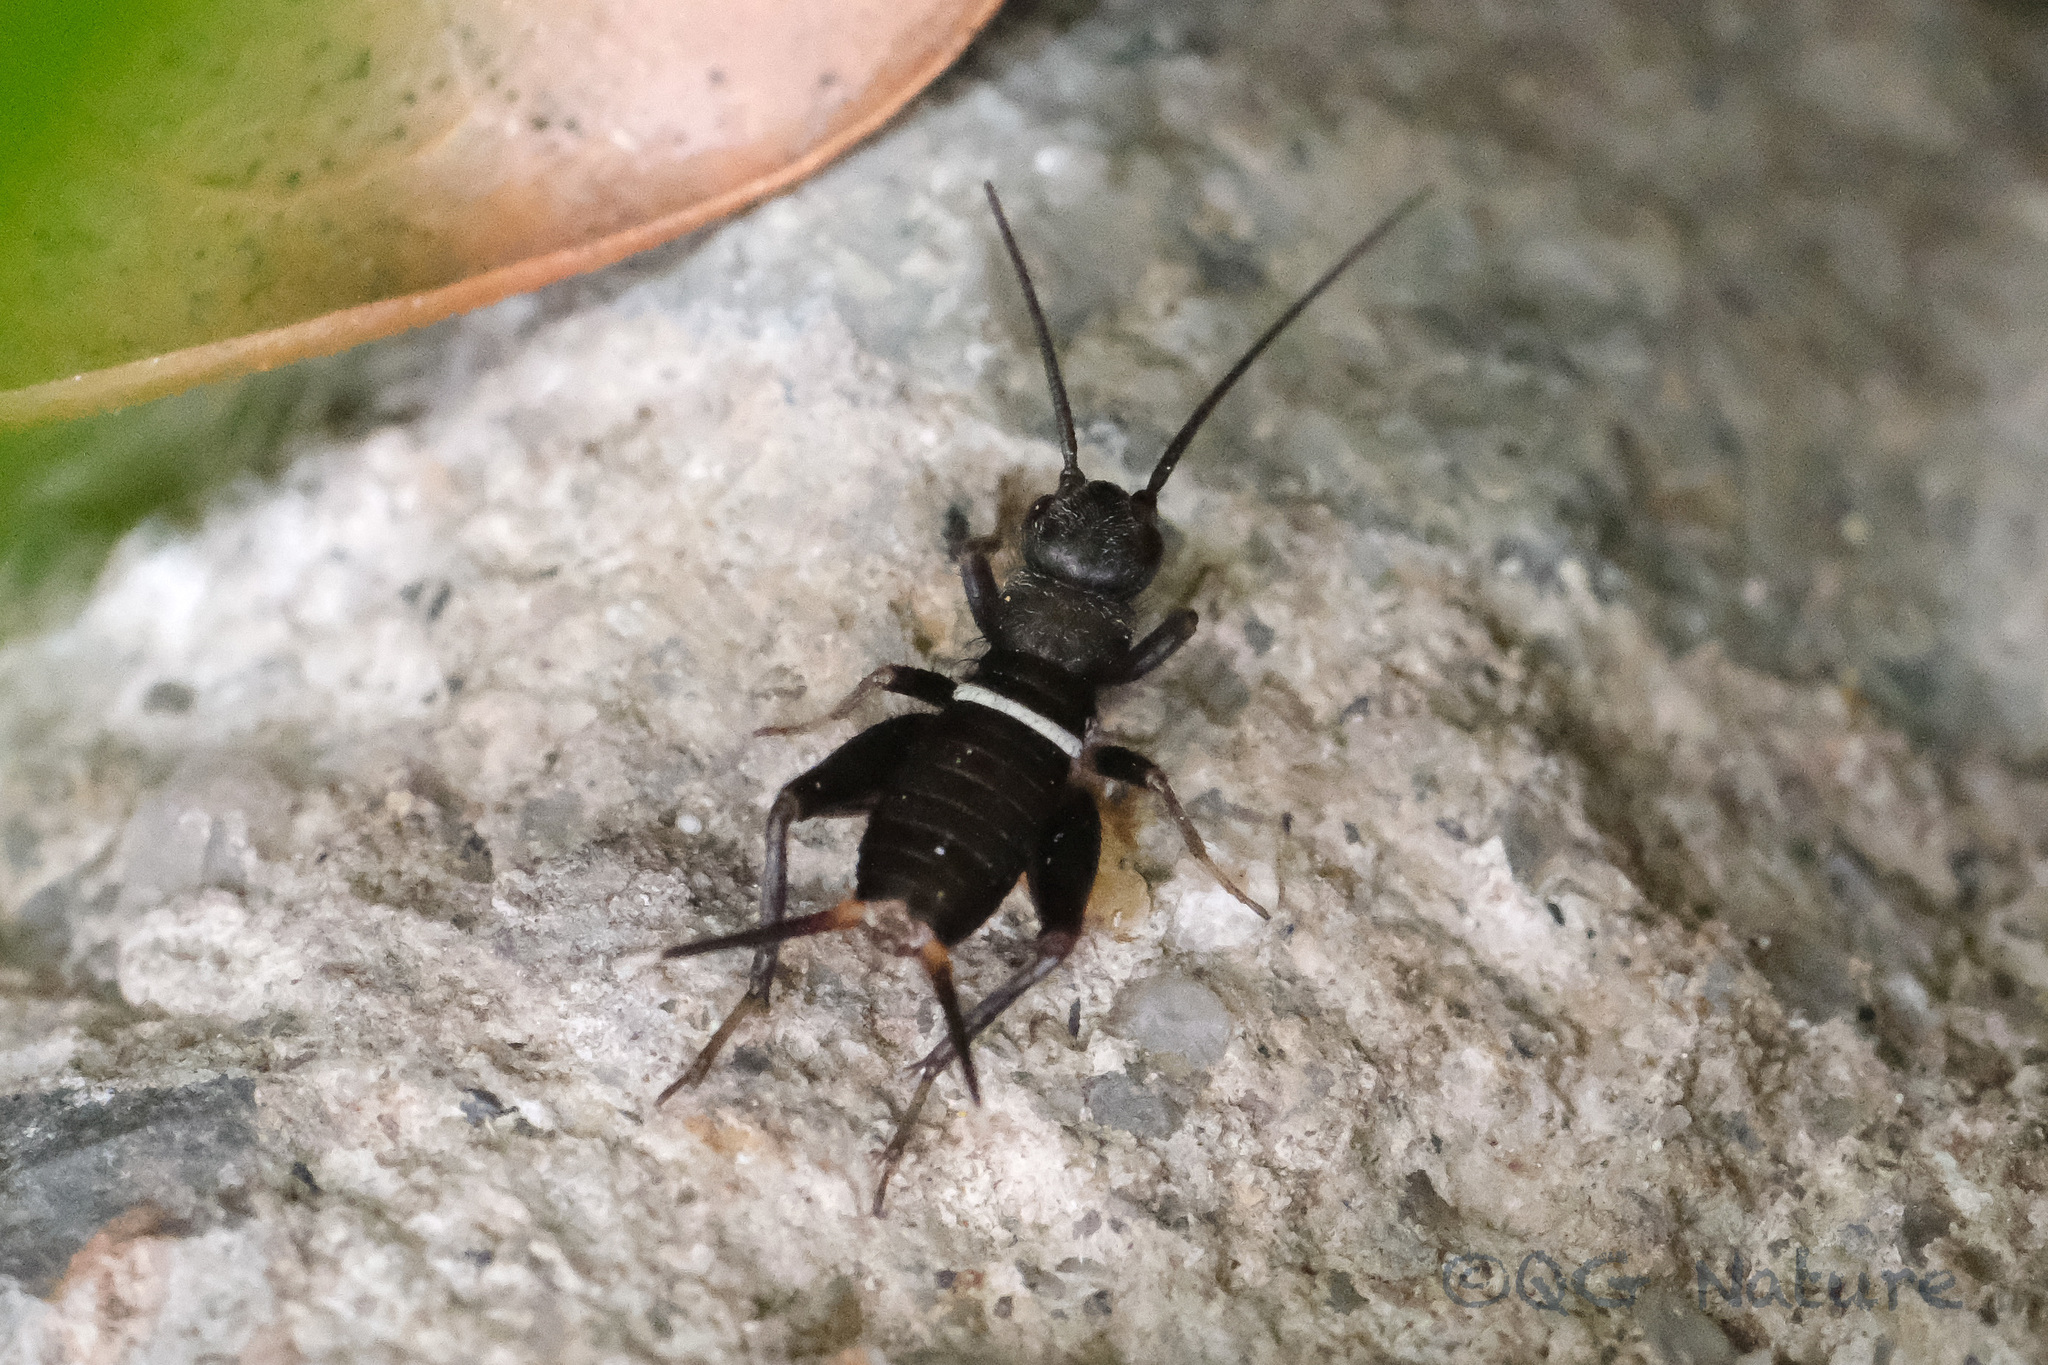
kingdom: Animalia
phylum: Arthropoda
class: Insecta
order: Orthoptera
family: Gryllidae
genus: Teleogryllus
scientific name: Teleogryllus emma
